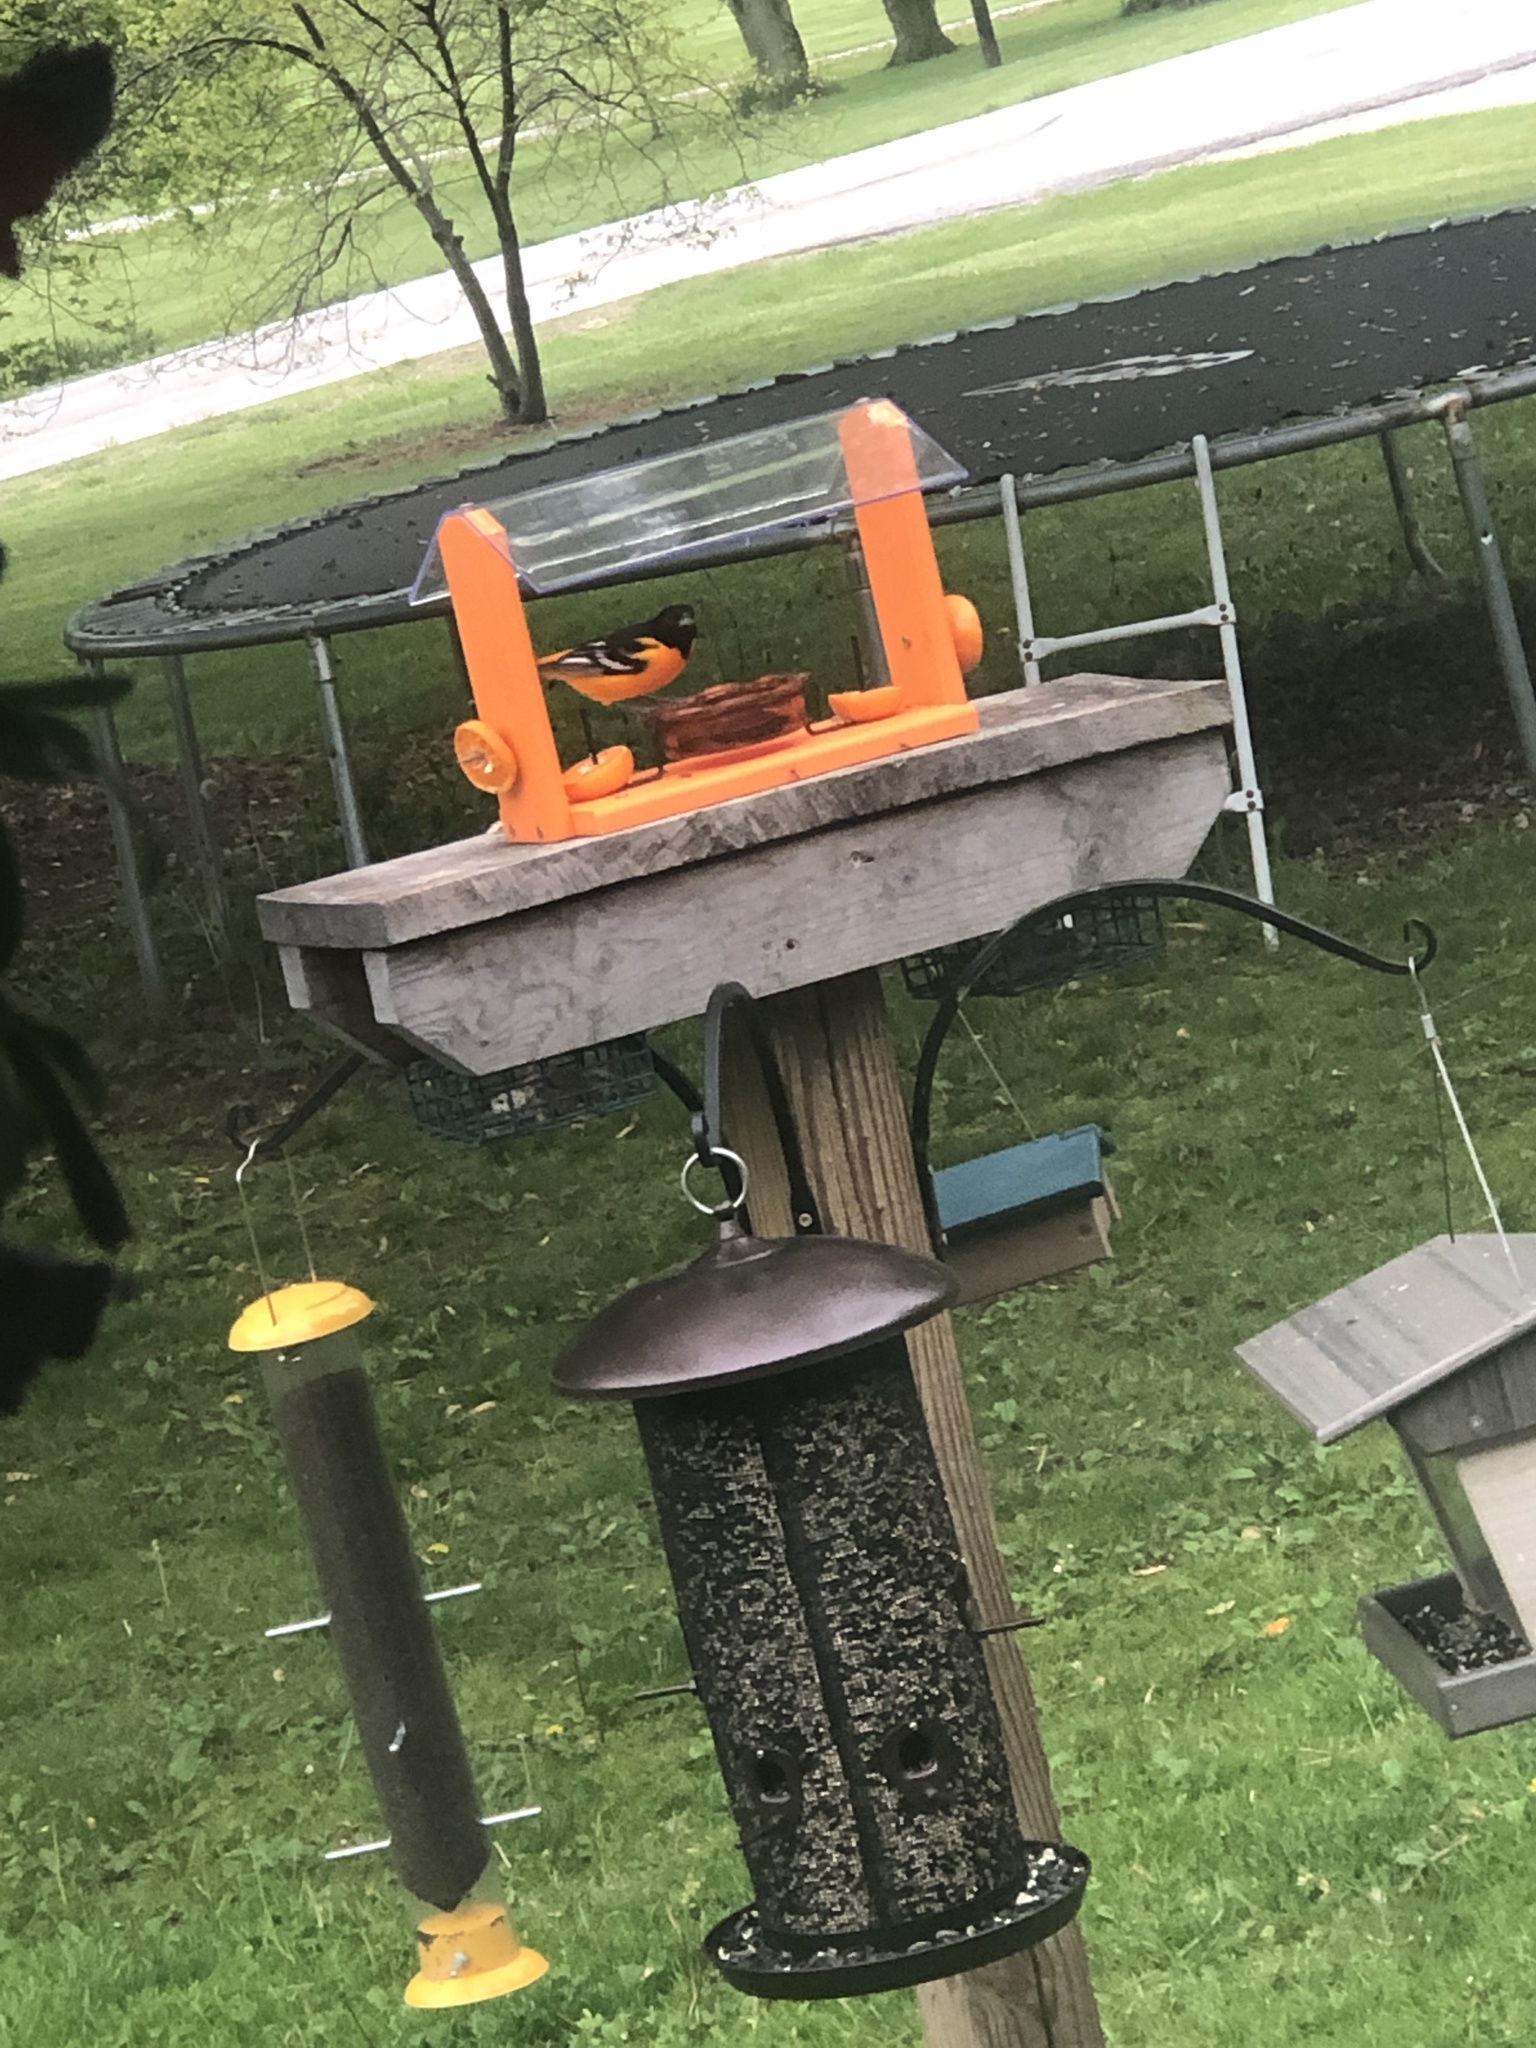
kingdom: Animalia
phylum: Chordata
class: Aves
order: Passeriformes
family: Icteridae
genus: Icterus
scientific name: Icterus galbula
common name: Baltimore oriole
